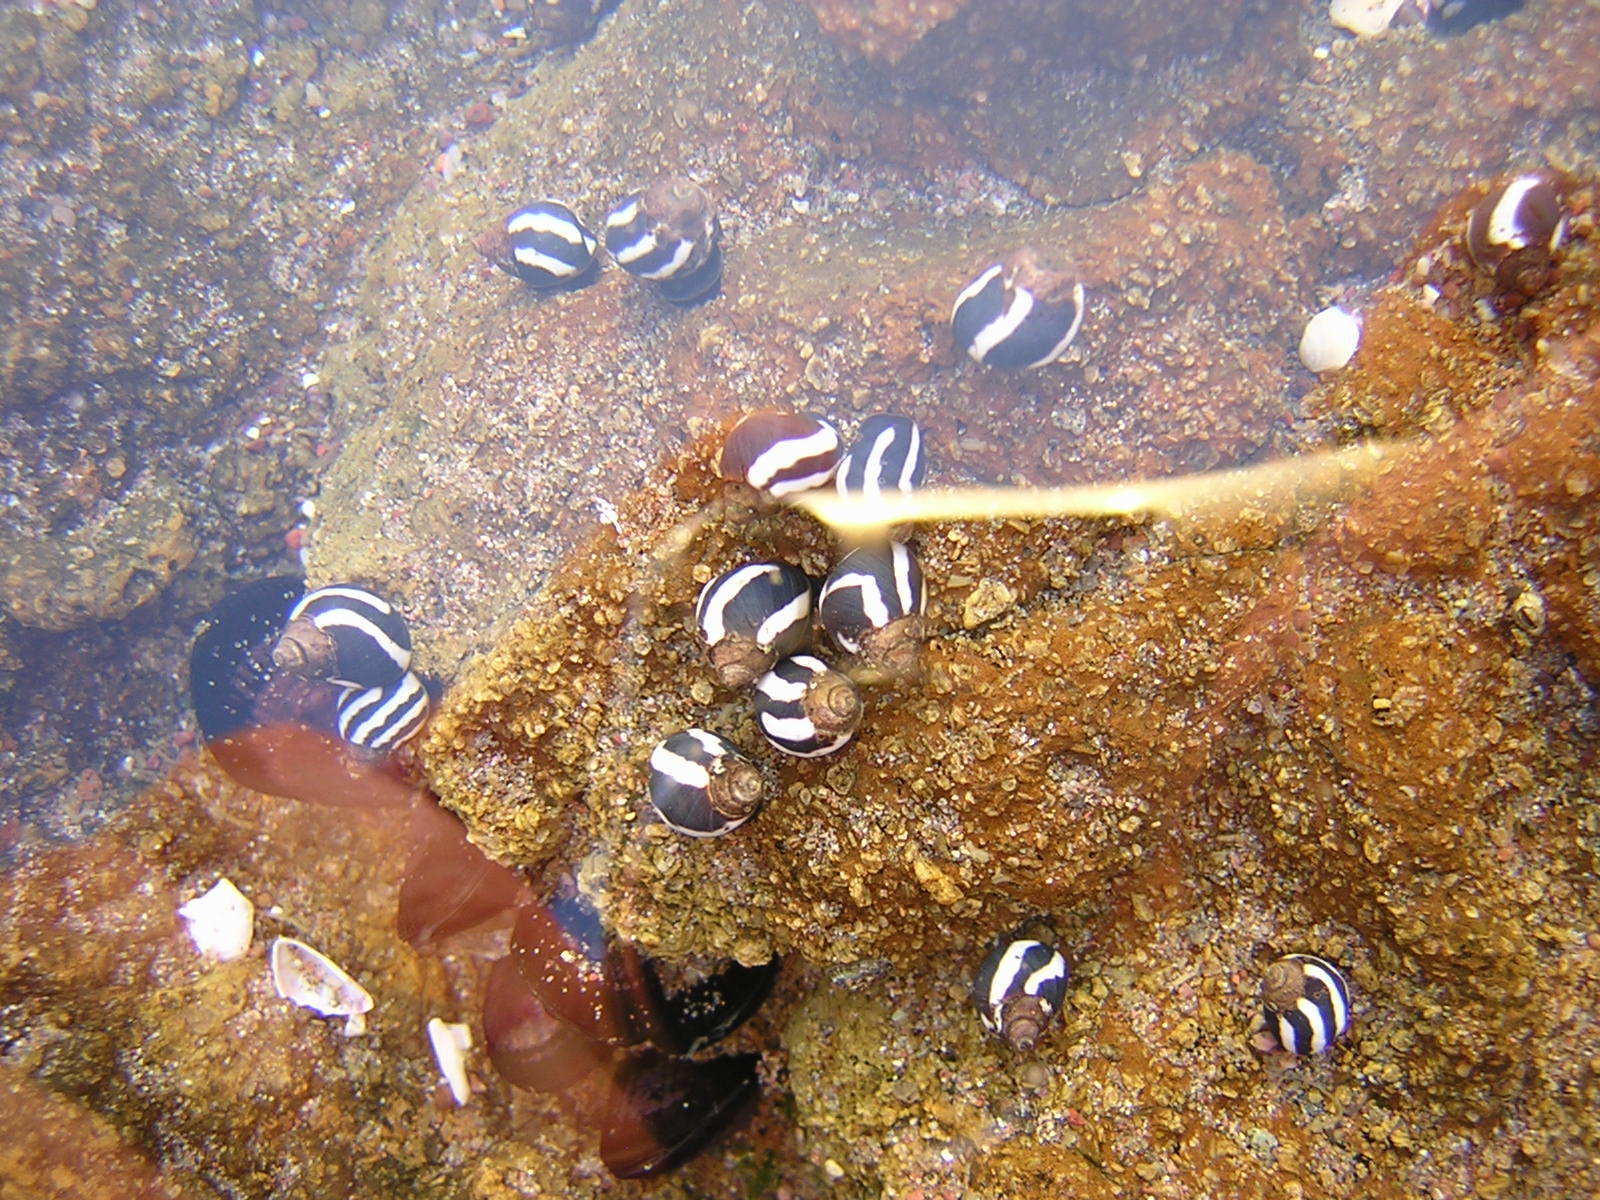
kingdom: Animalia
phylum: Mollusca
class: Gastropoda
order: Littorinimorpha
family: Littorinidae
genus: Echinolittorina
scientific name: Echinolittorina peruviana
